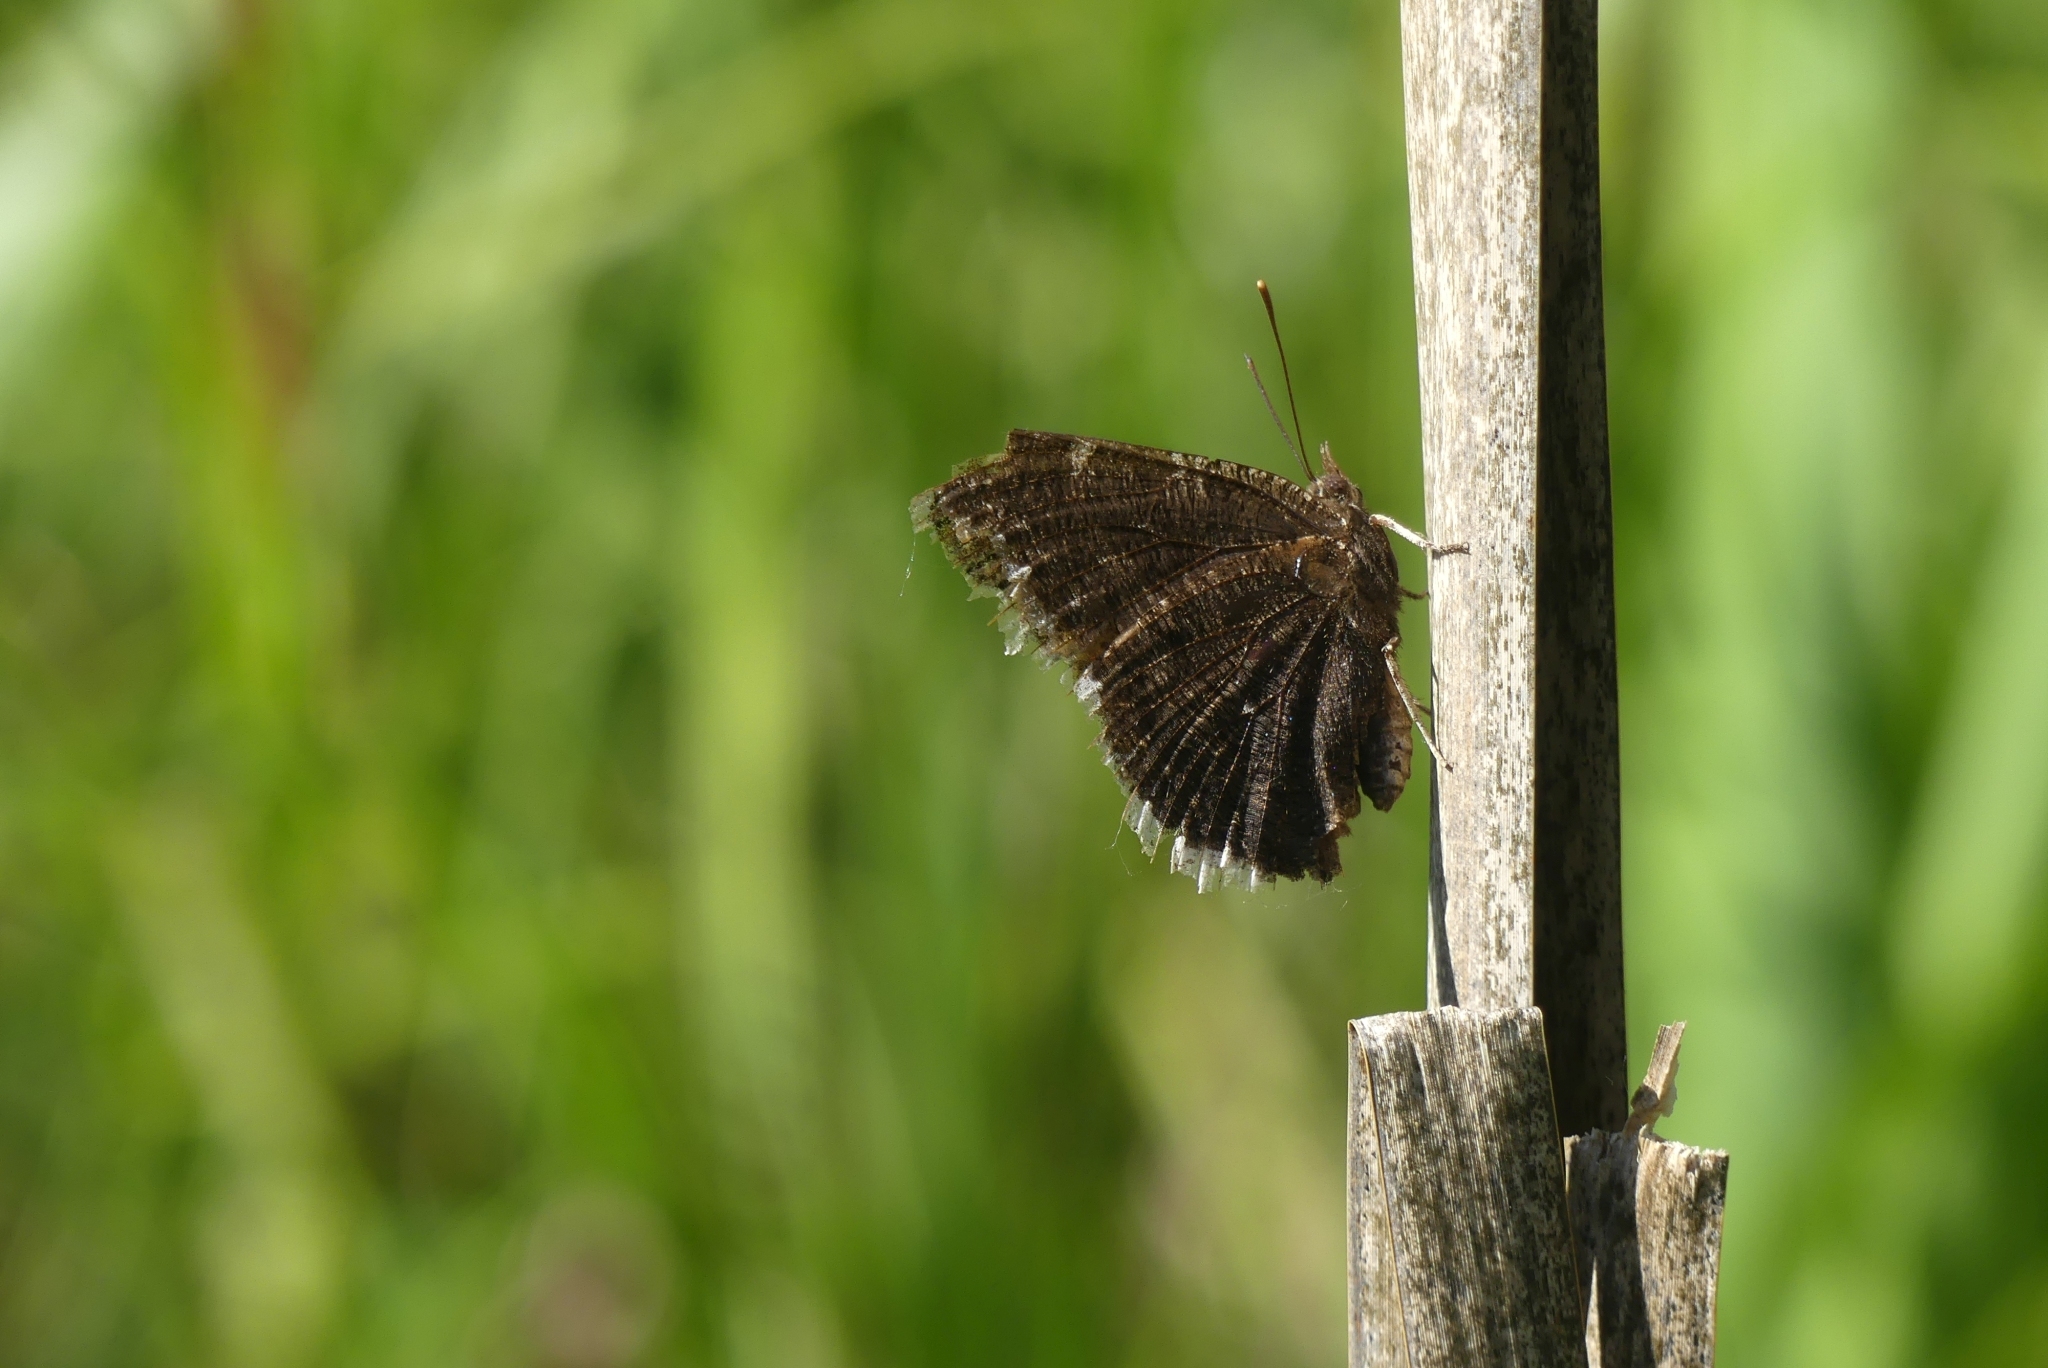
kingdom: Animalia
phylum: Arthropoda
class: Insecta
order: Lepidoptera
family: Nymphalidae
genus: Nymphalis
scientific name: Nymphalis antiopa
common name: Camberwell beauty
